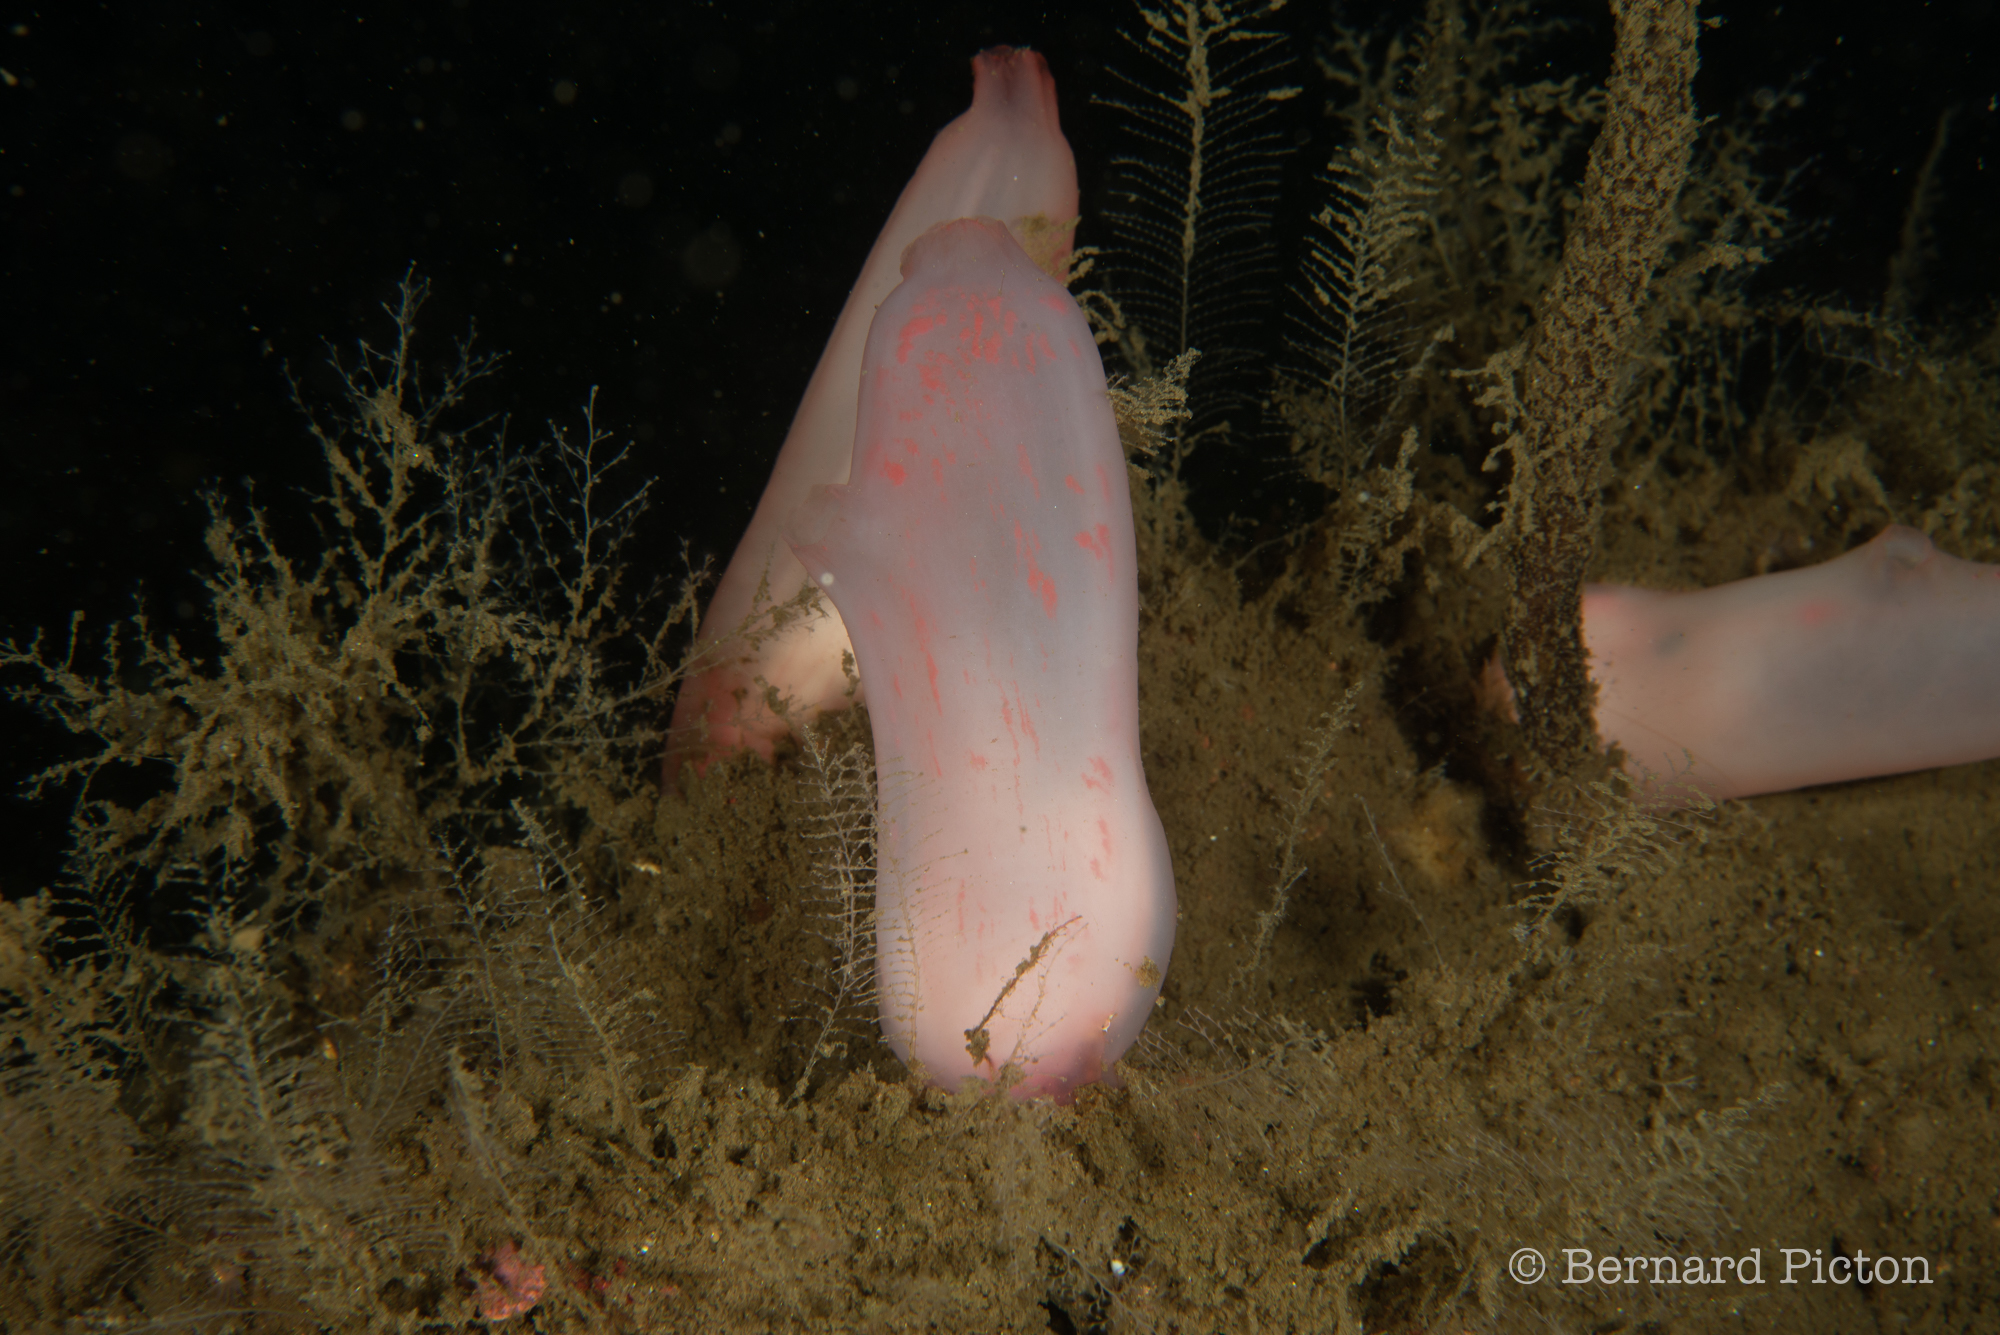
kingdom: Animalia
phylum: Chordata
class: Ascidiacea
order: Phlebobranchia
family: Ascidiidae
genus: Ascidia
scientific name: Ascidia virginea
